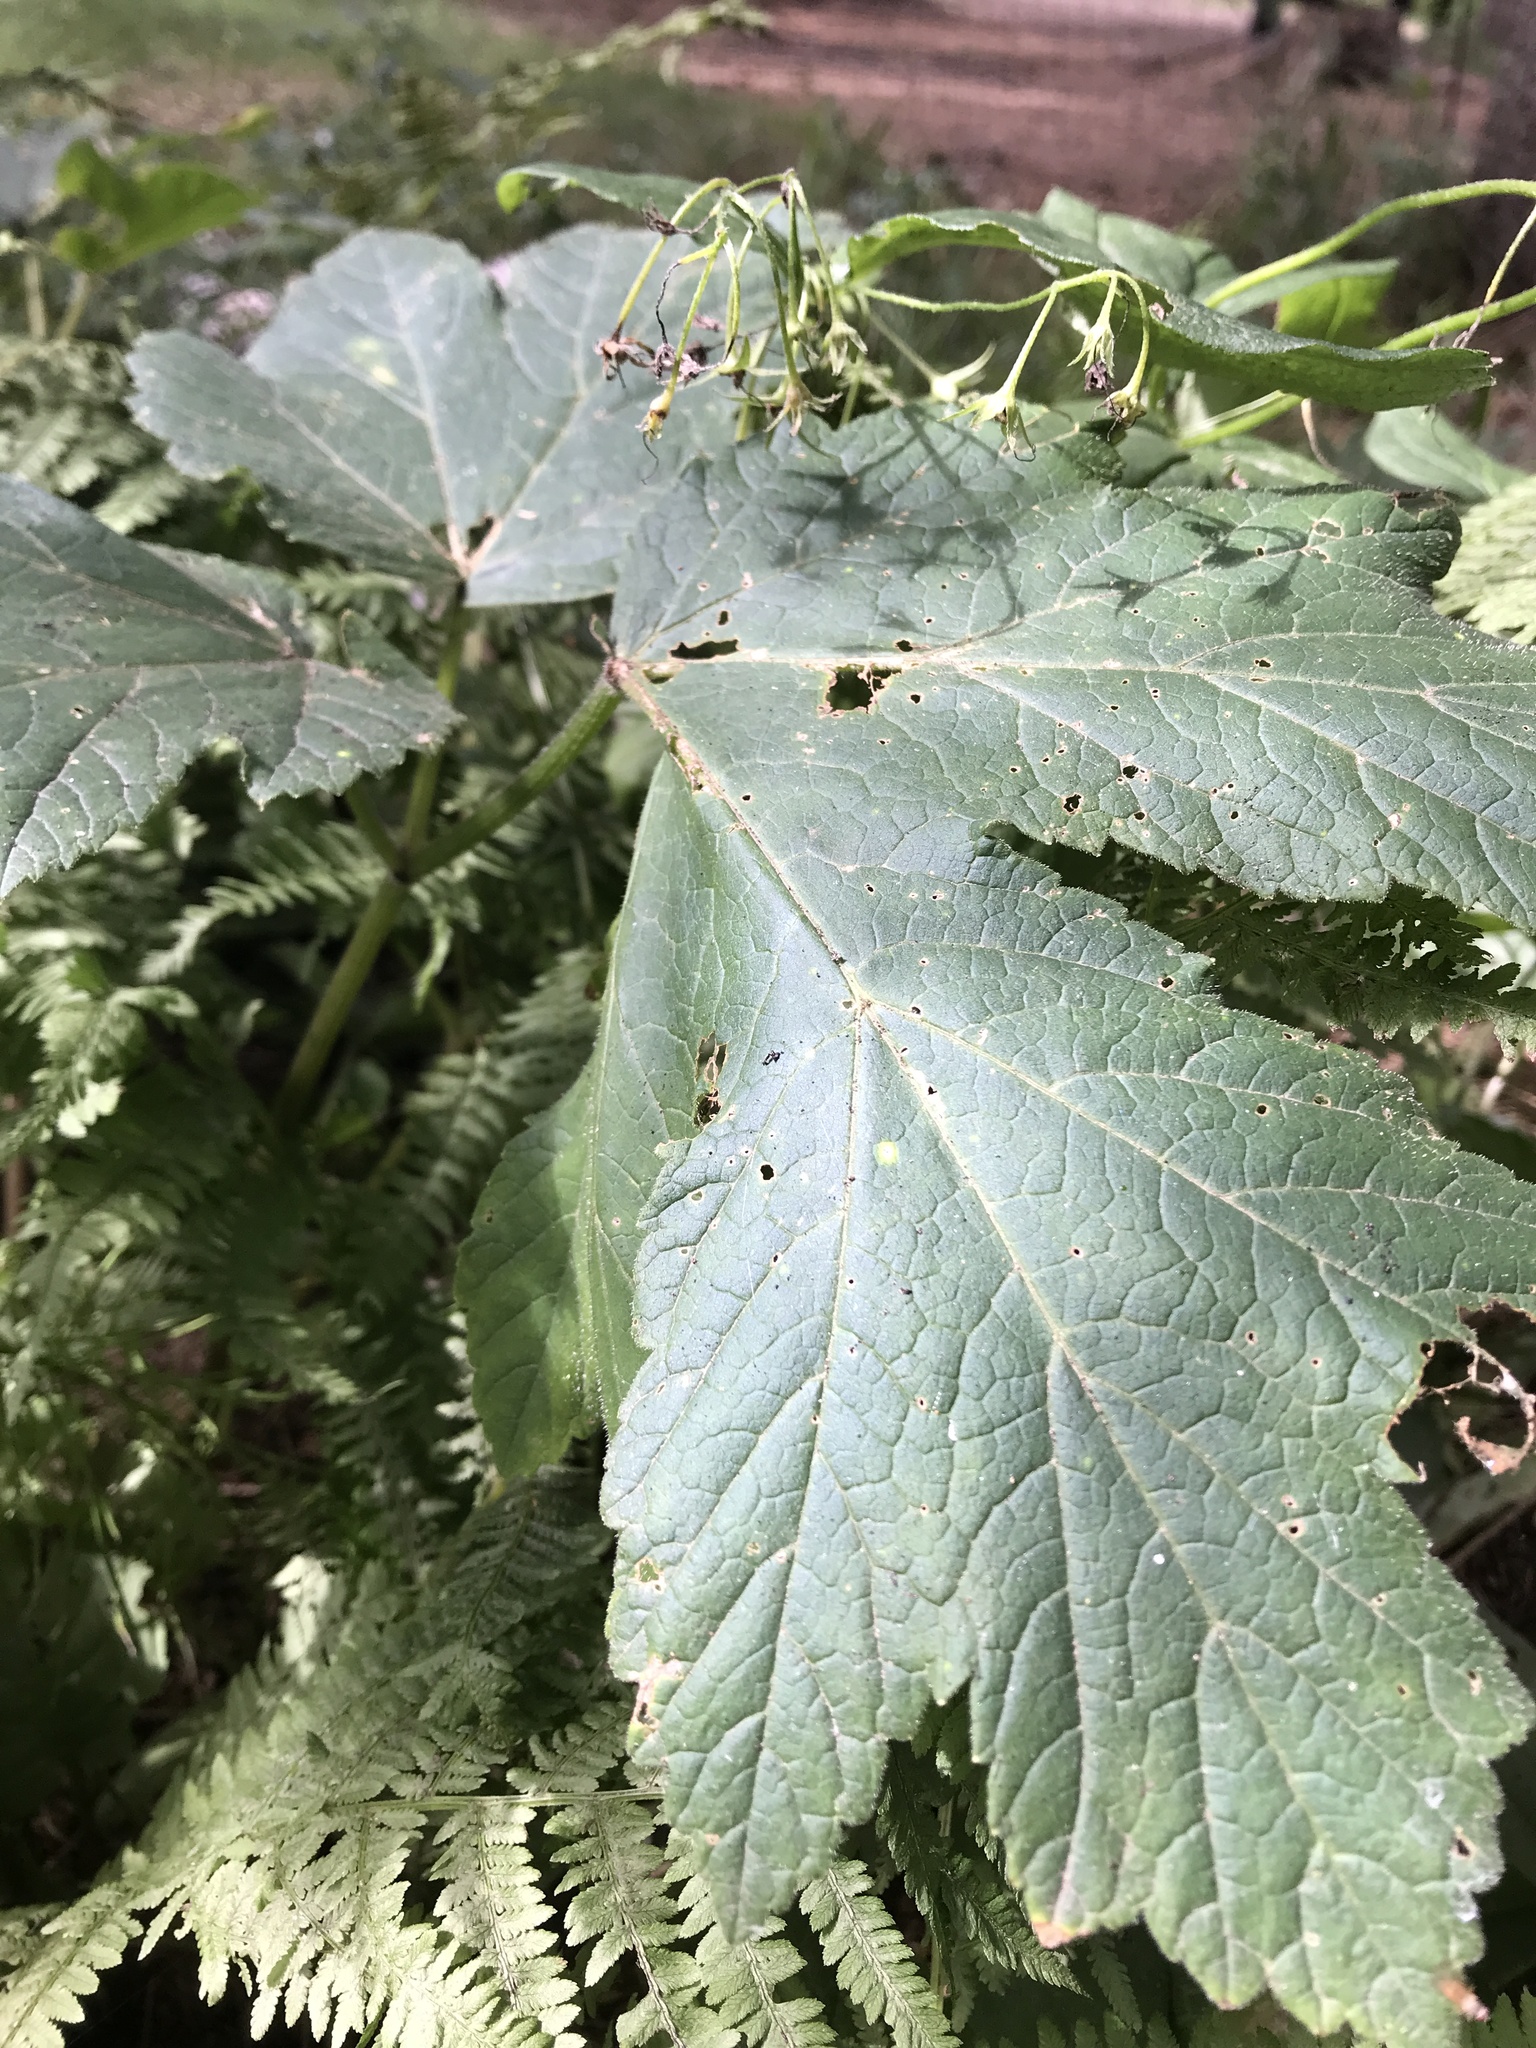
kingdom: Plantae
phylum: Tracheophyta
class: Magnoliopsida
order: Apiales
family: Apiaceae
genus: Heracleum
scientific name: Heracleum maximum
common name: American cow parsnip
